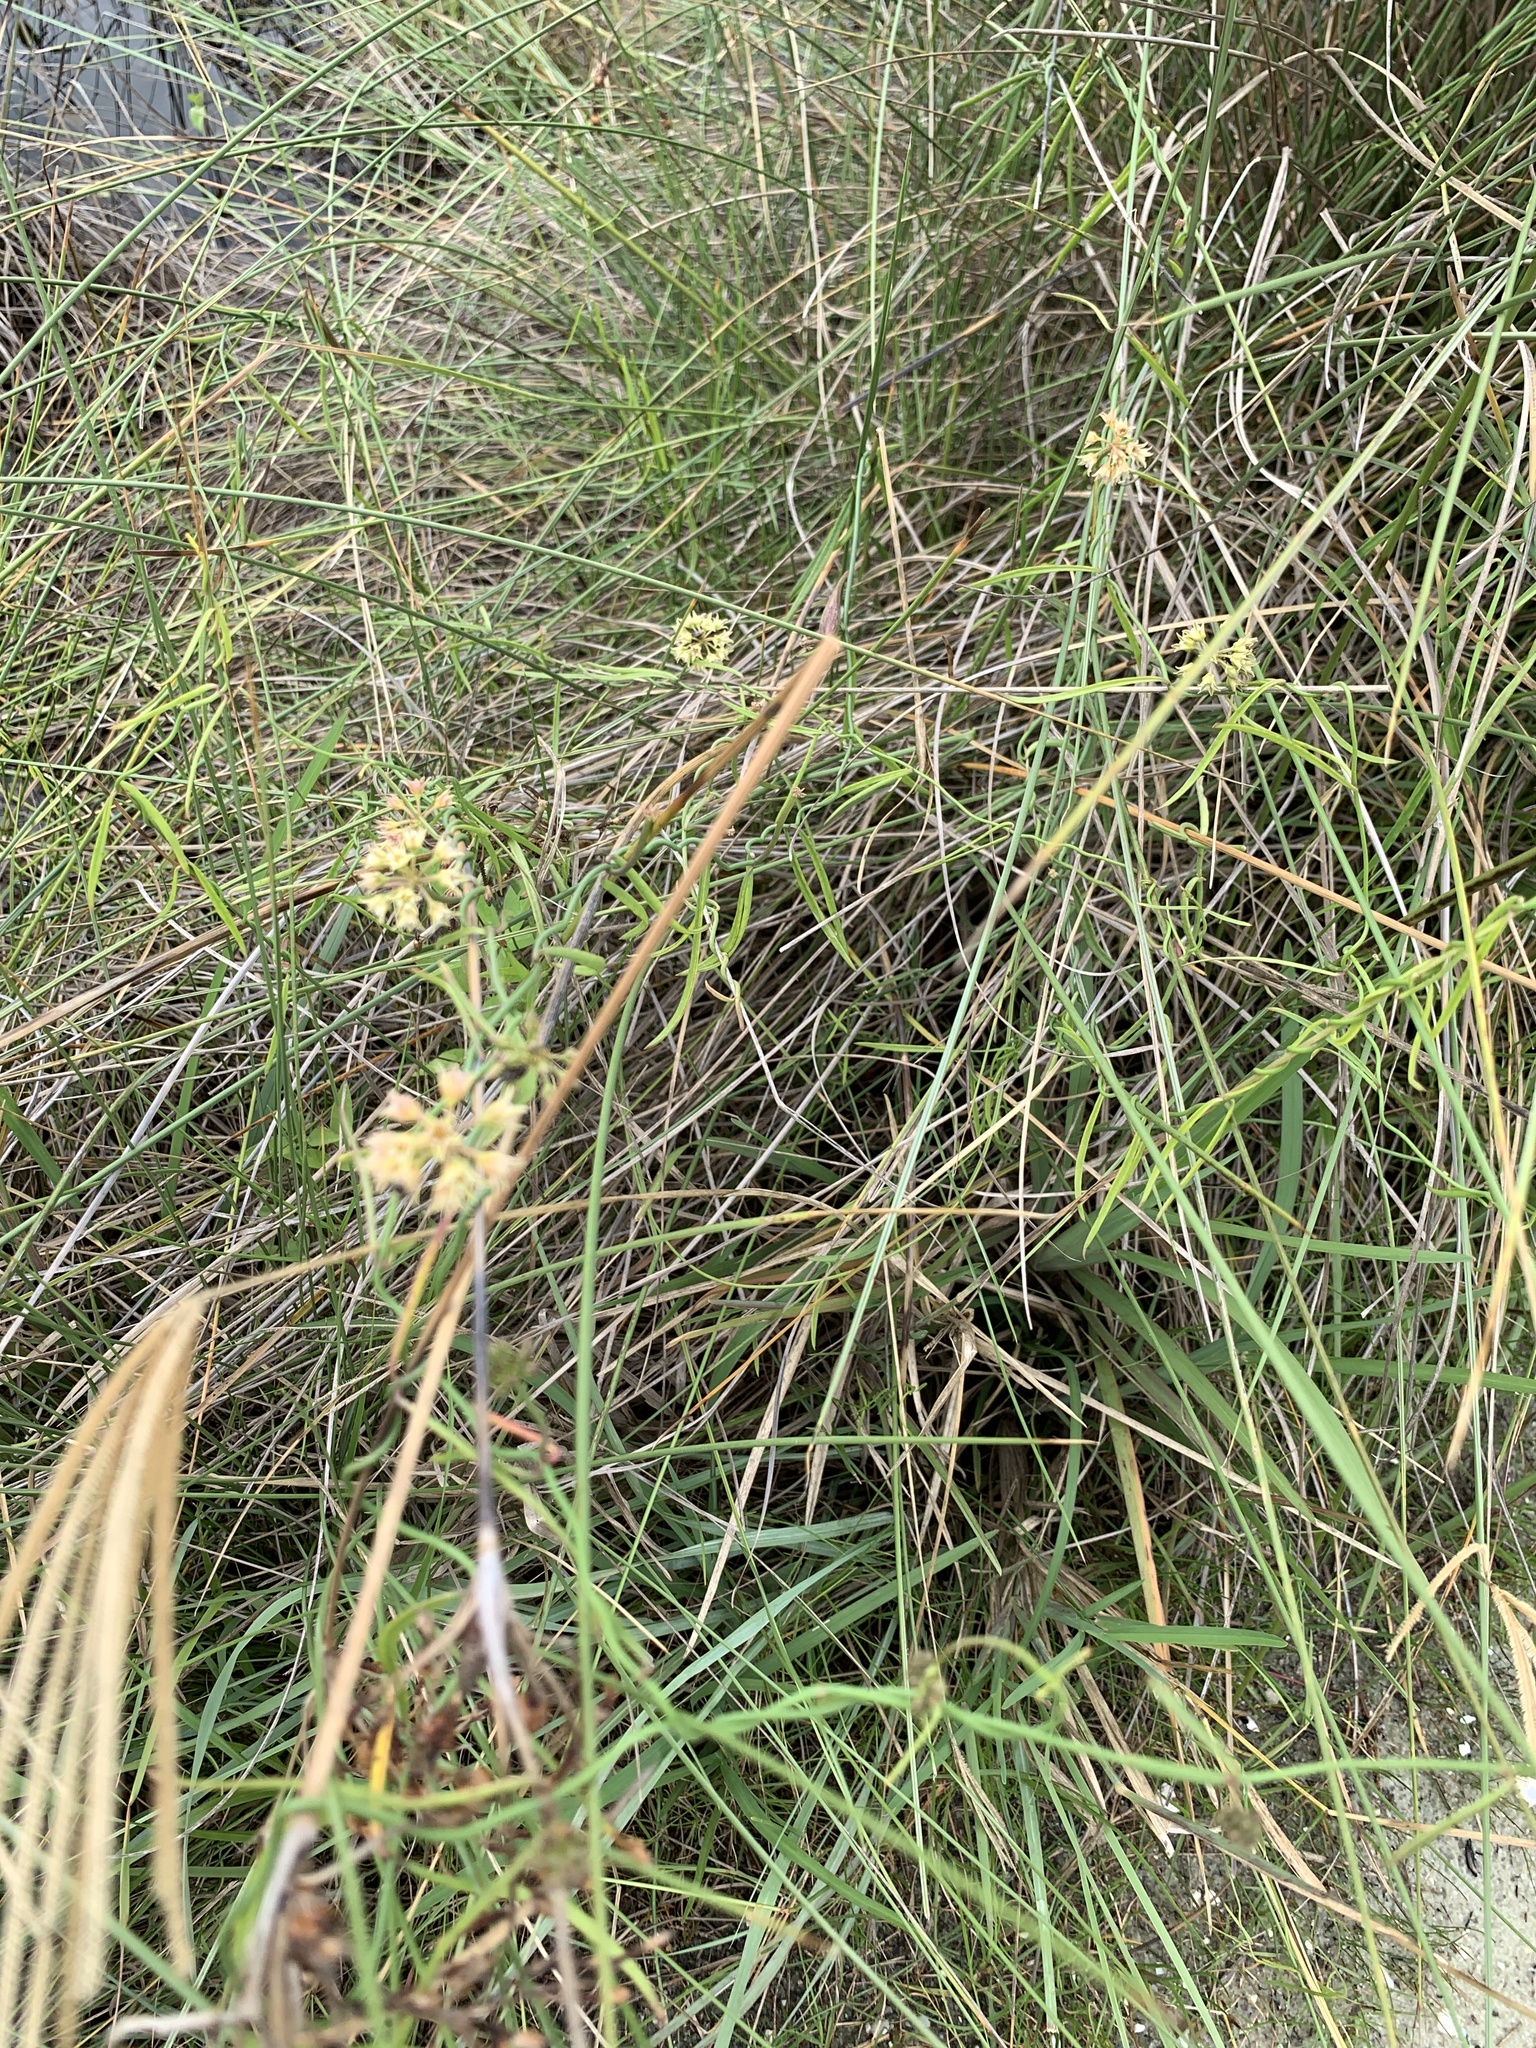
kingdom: Plantae
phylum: Tracheophyta
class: Magnoliopsida
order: Gentianales
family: Apocynaceae
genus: Pattalias
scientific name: Pattalias
